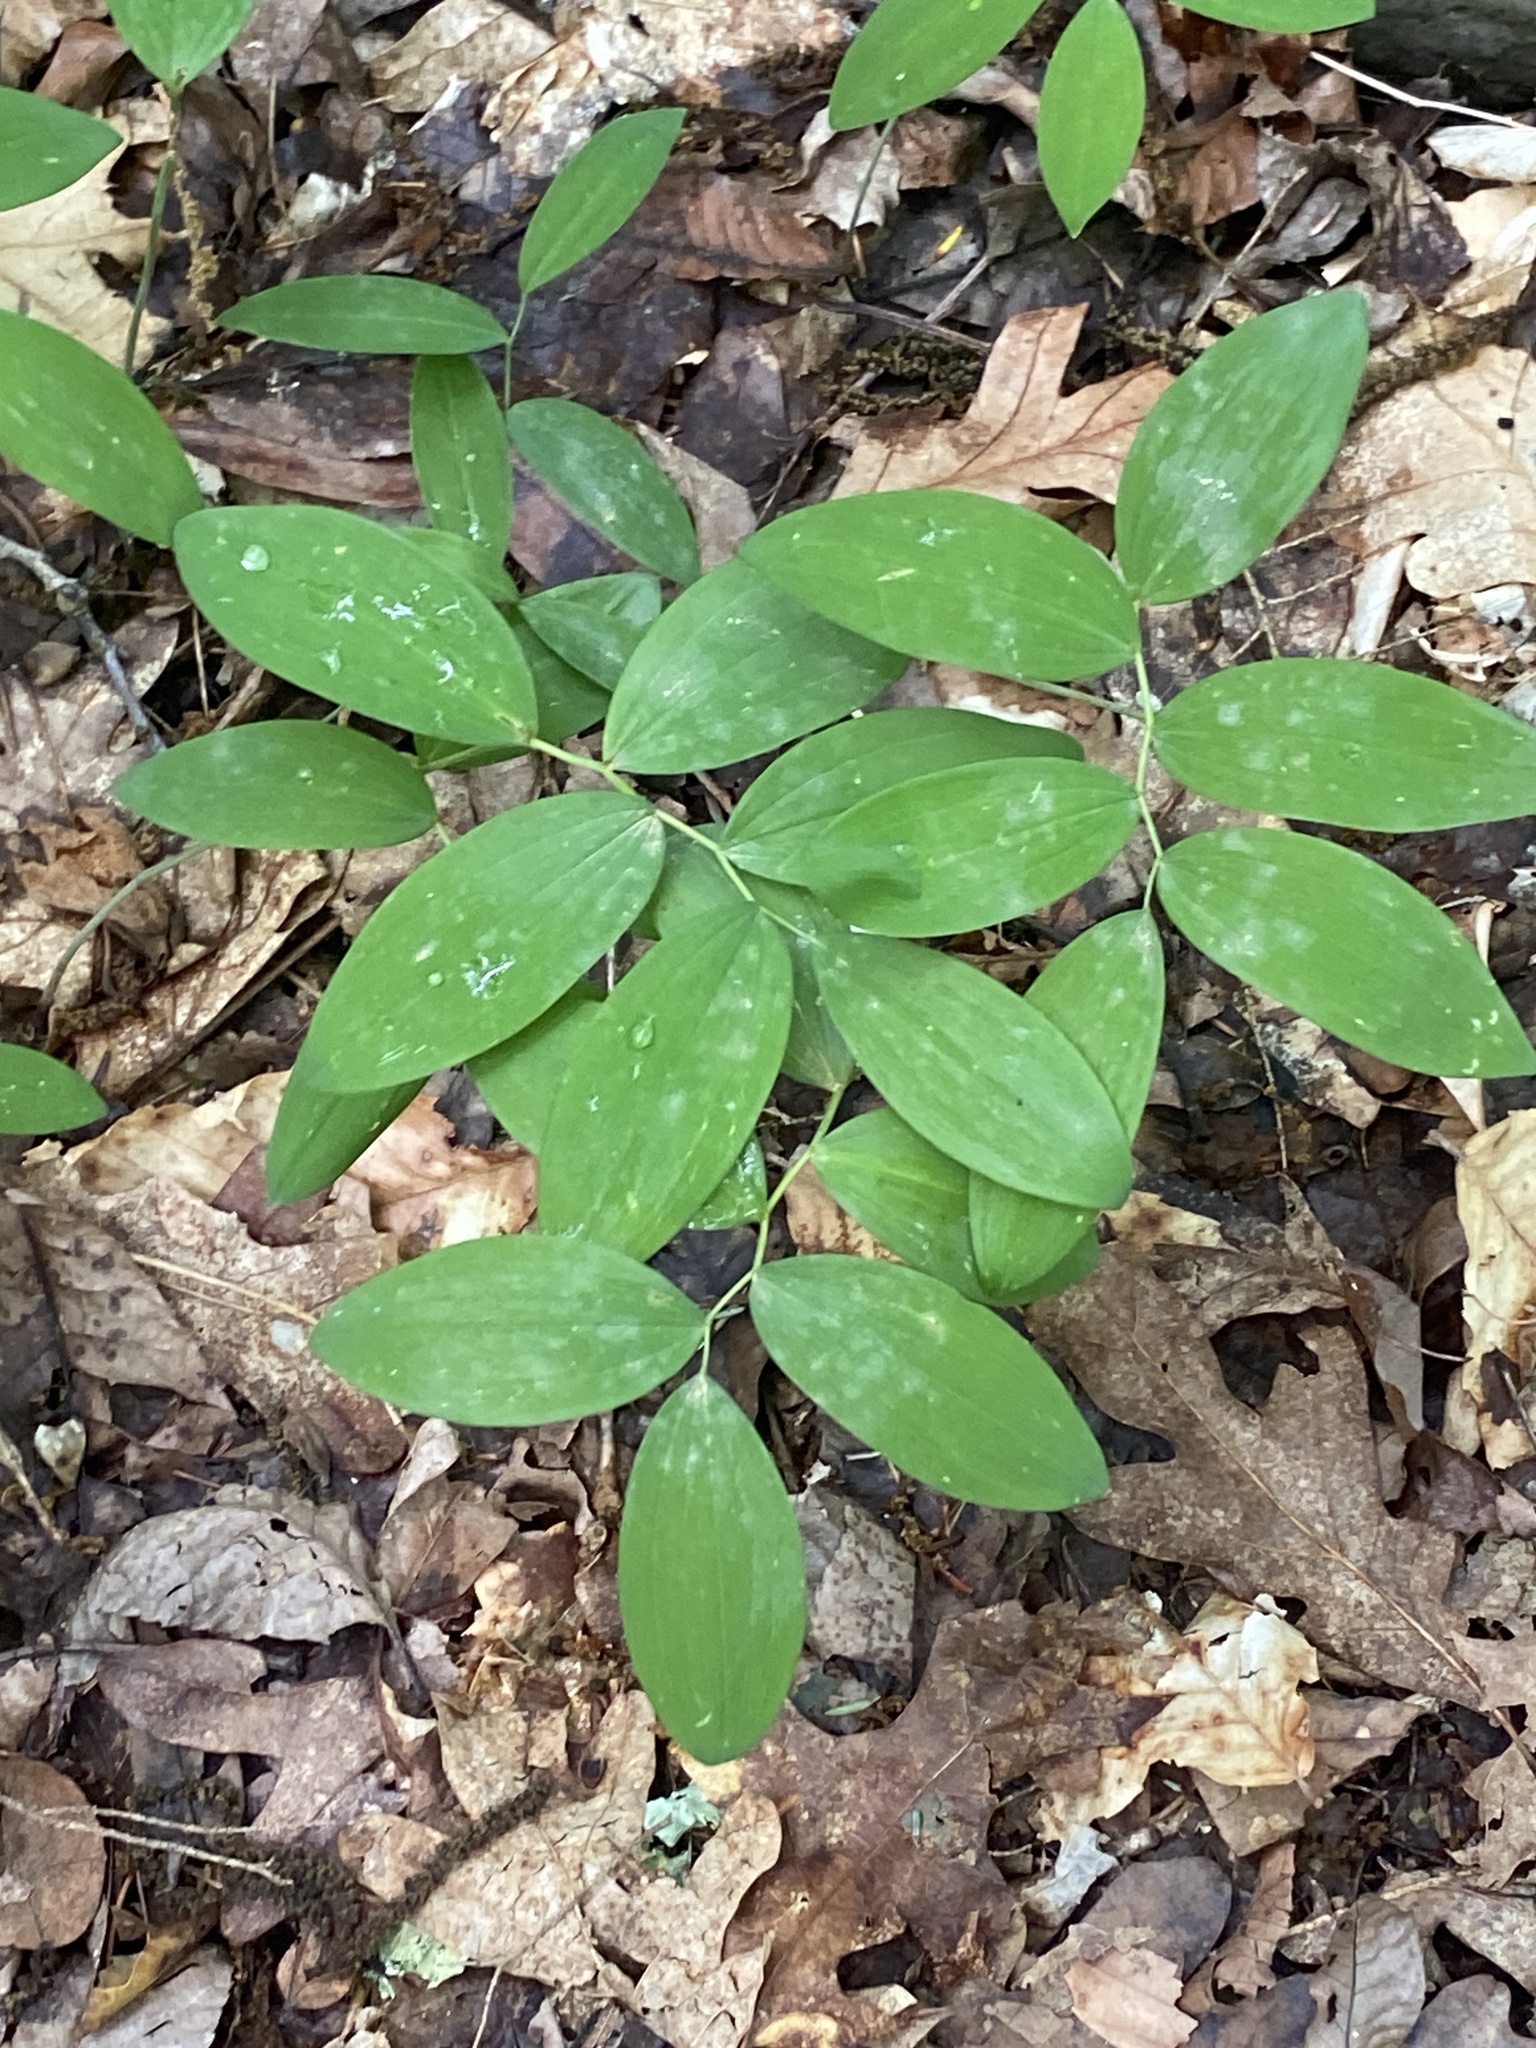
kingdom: Plantae
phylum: Tracheophyta
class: Liliopsida
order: Asparagales
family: Asparagaceae
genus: Polygonatum
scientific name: Polygonatum pubescens
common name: Downy solomon's seal
